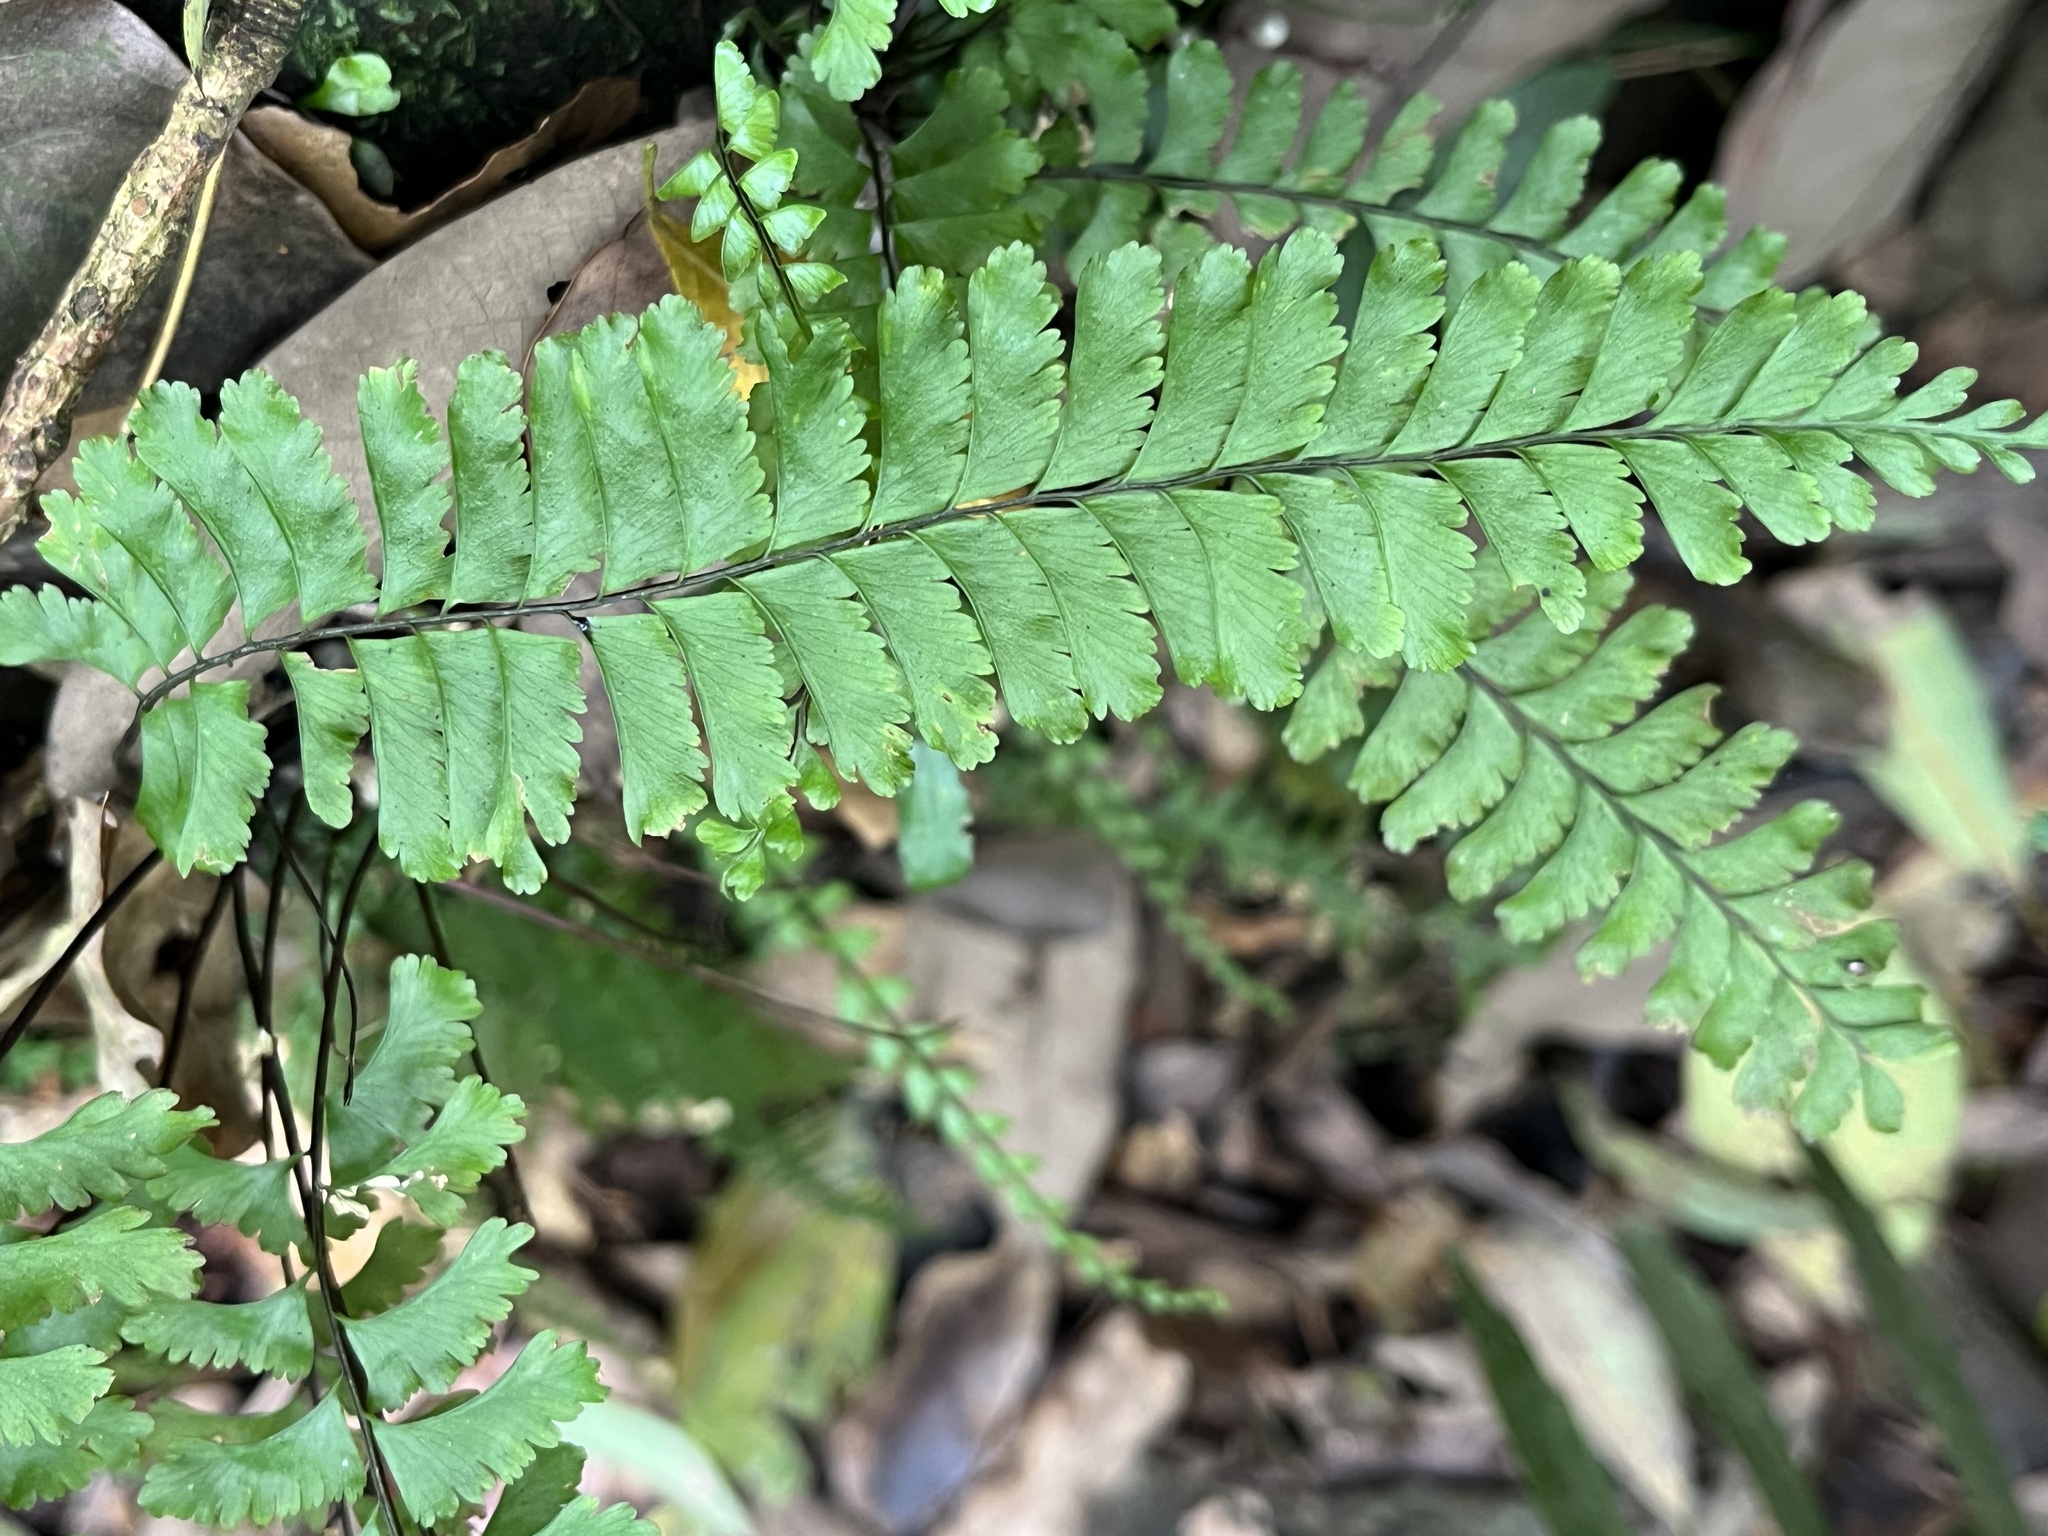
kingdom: Plantae
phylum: Tracheophyta
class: Polypodiopsida
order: Polypodiales
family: Aspleniaceae
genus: Hymenasplenium
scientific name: Hymenasplenium cheilosorum
